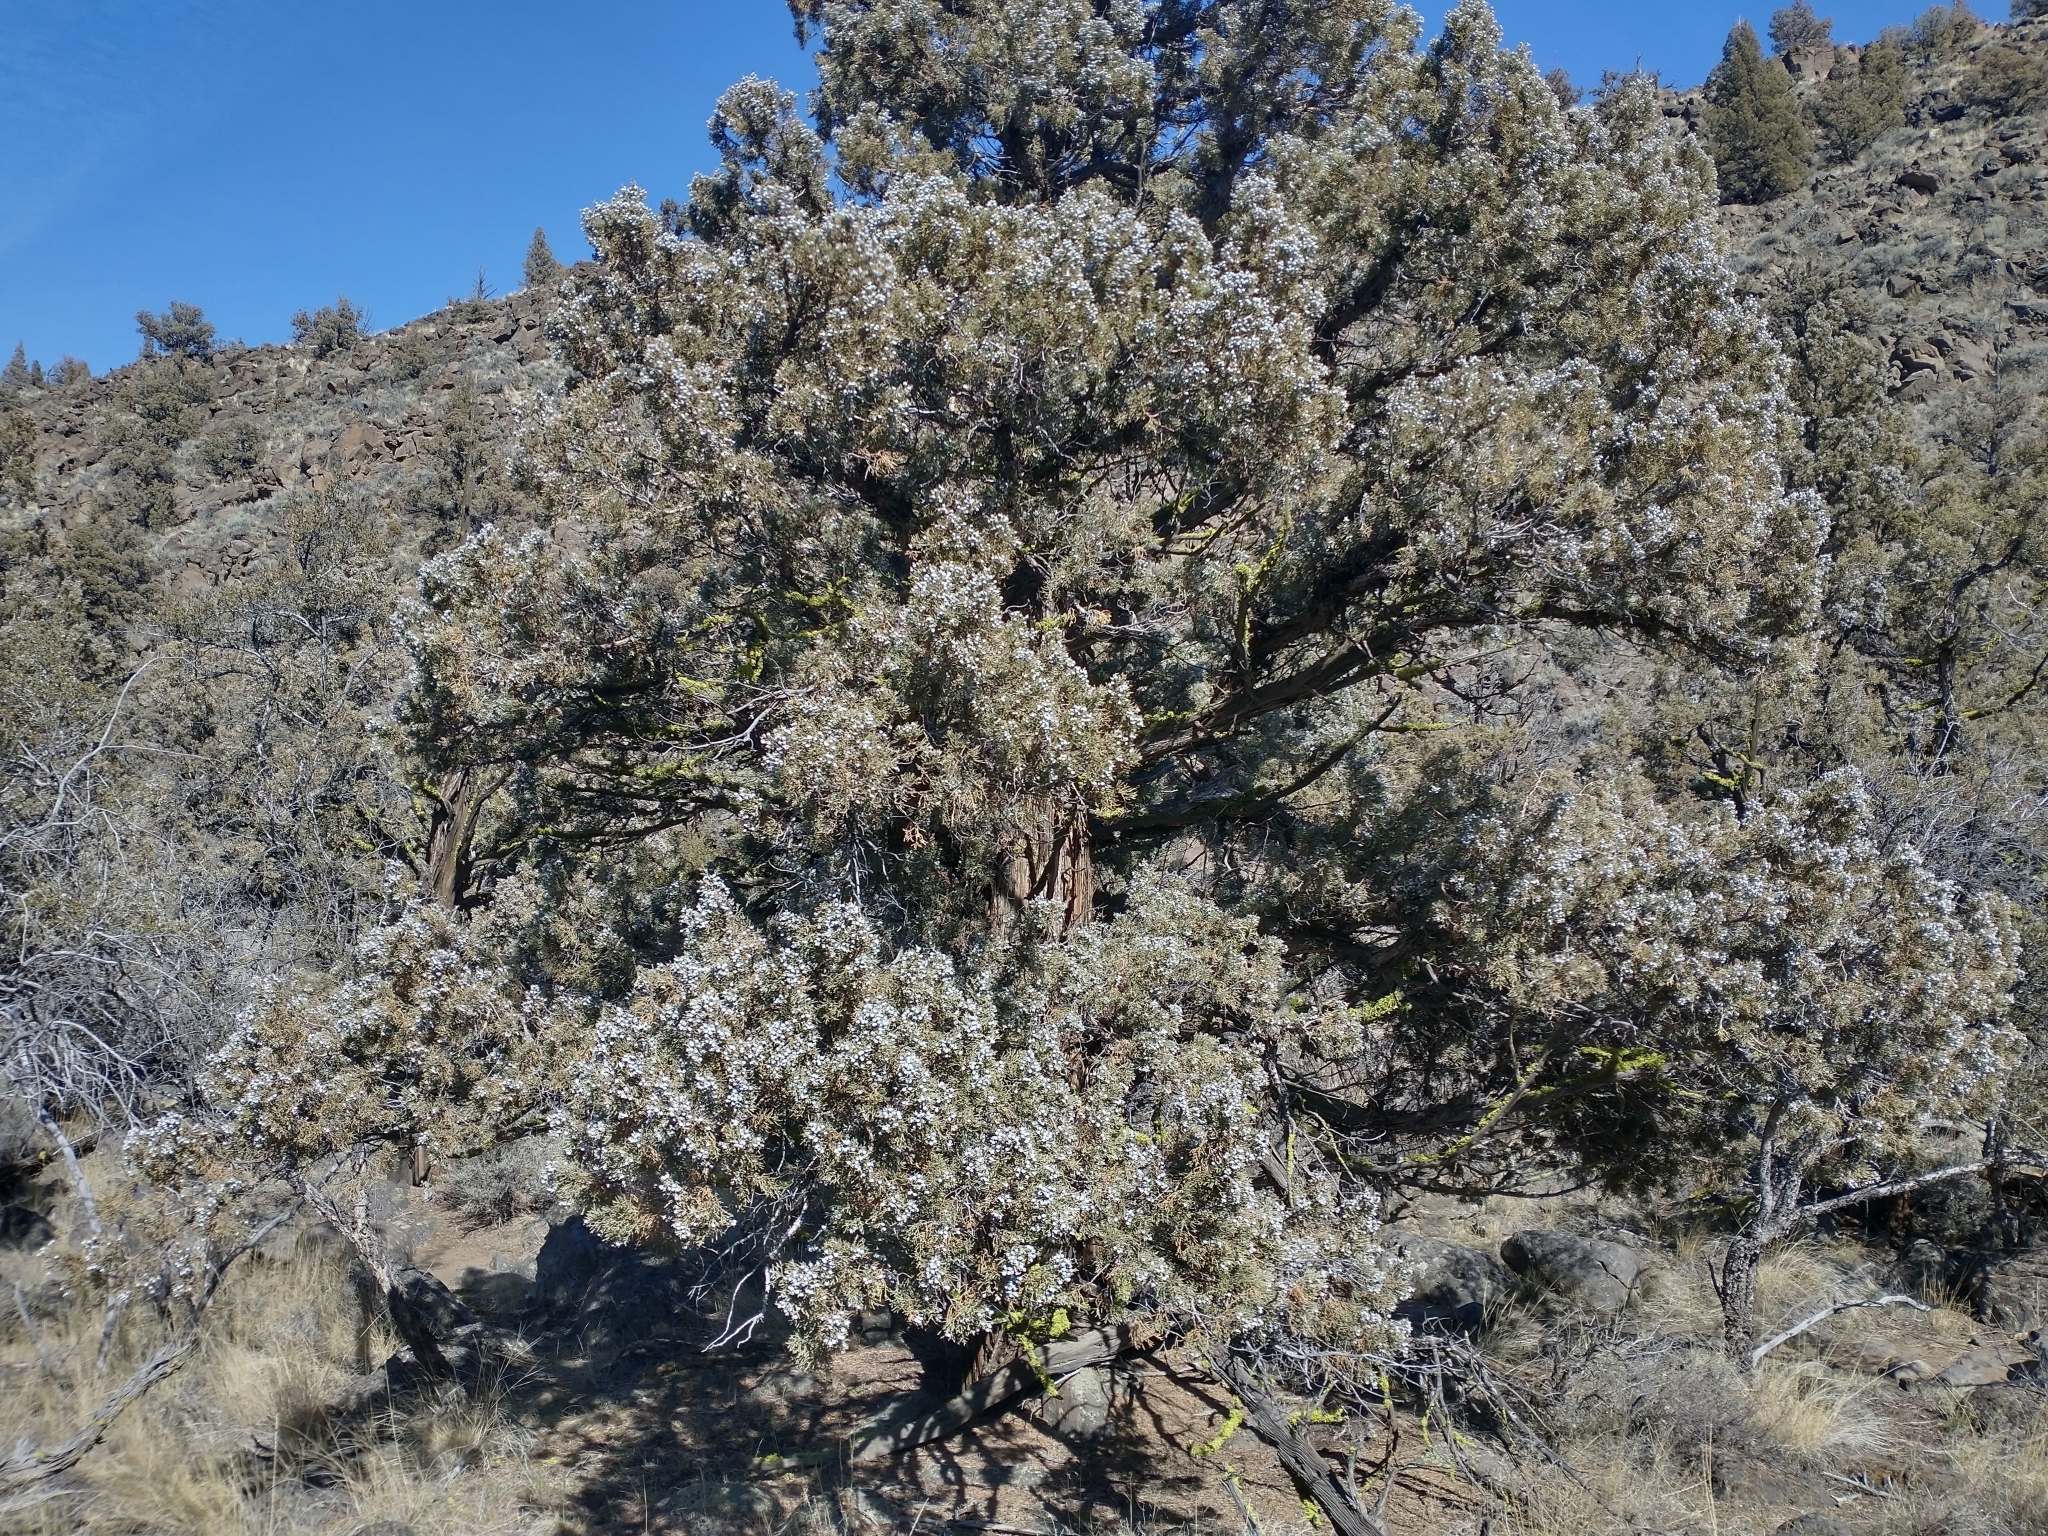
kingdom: Plantae
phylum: Tracheophyta
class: Pinopsida
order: Pinales
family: Cupressaceae
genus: Juniperus
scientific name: Juniperus occidentalis
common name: Western juniper
